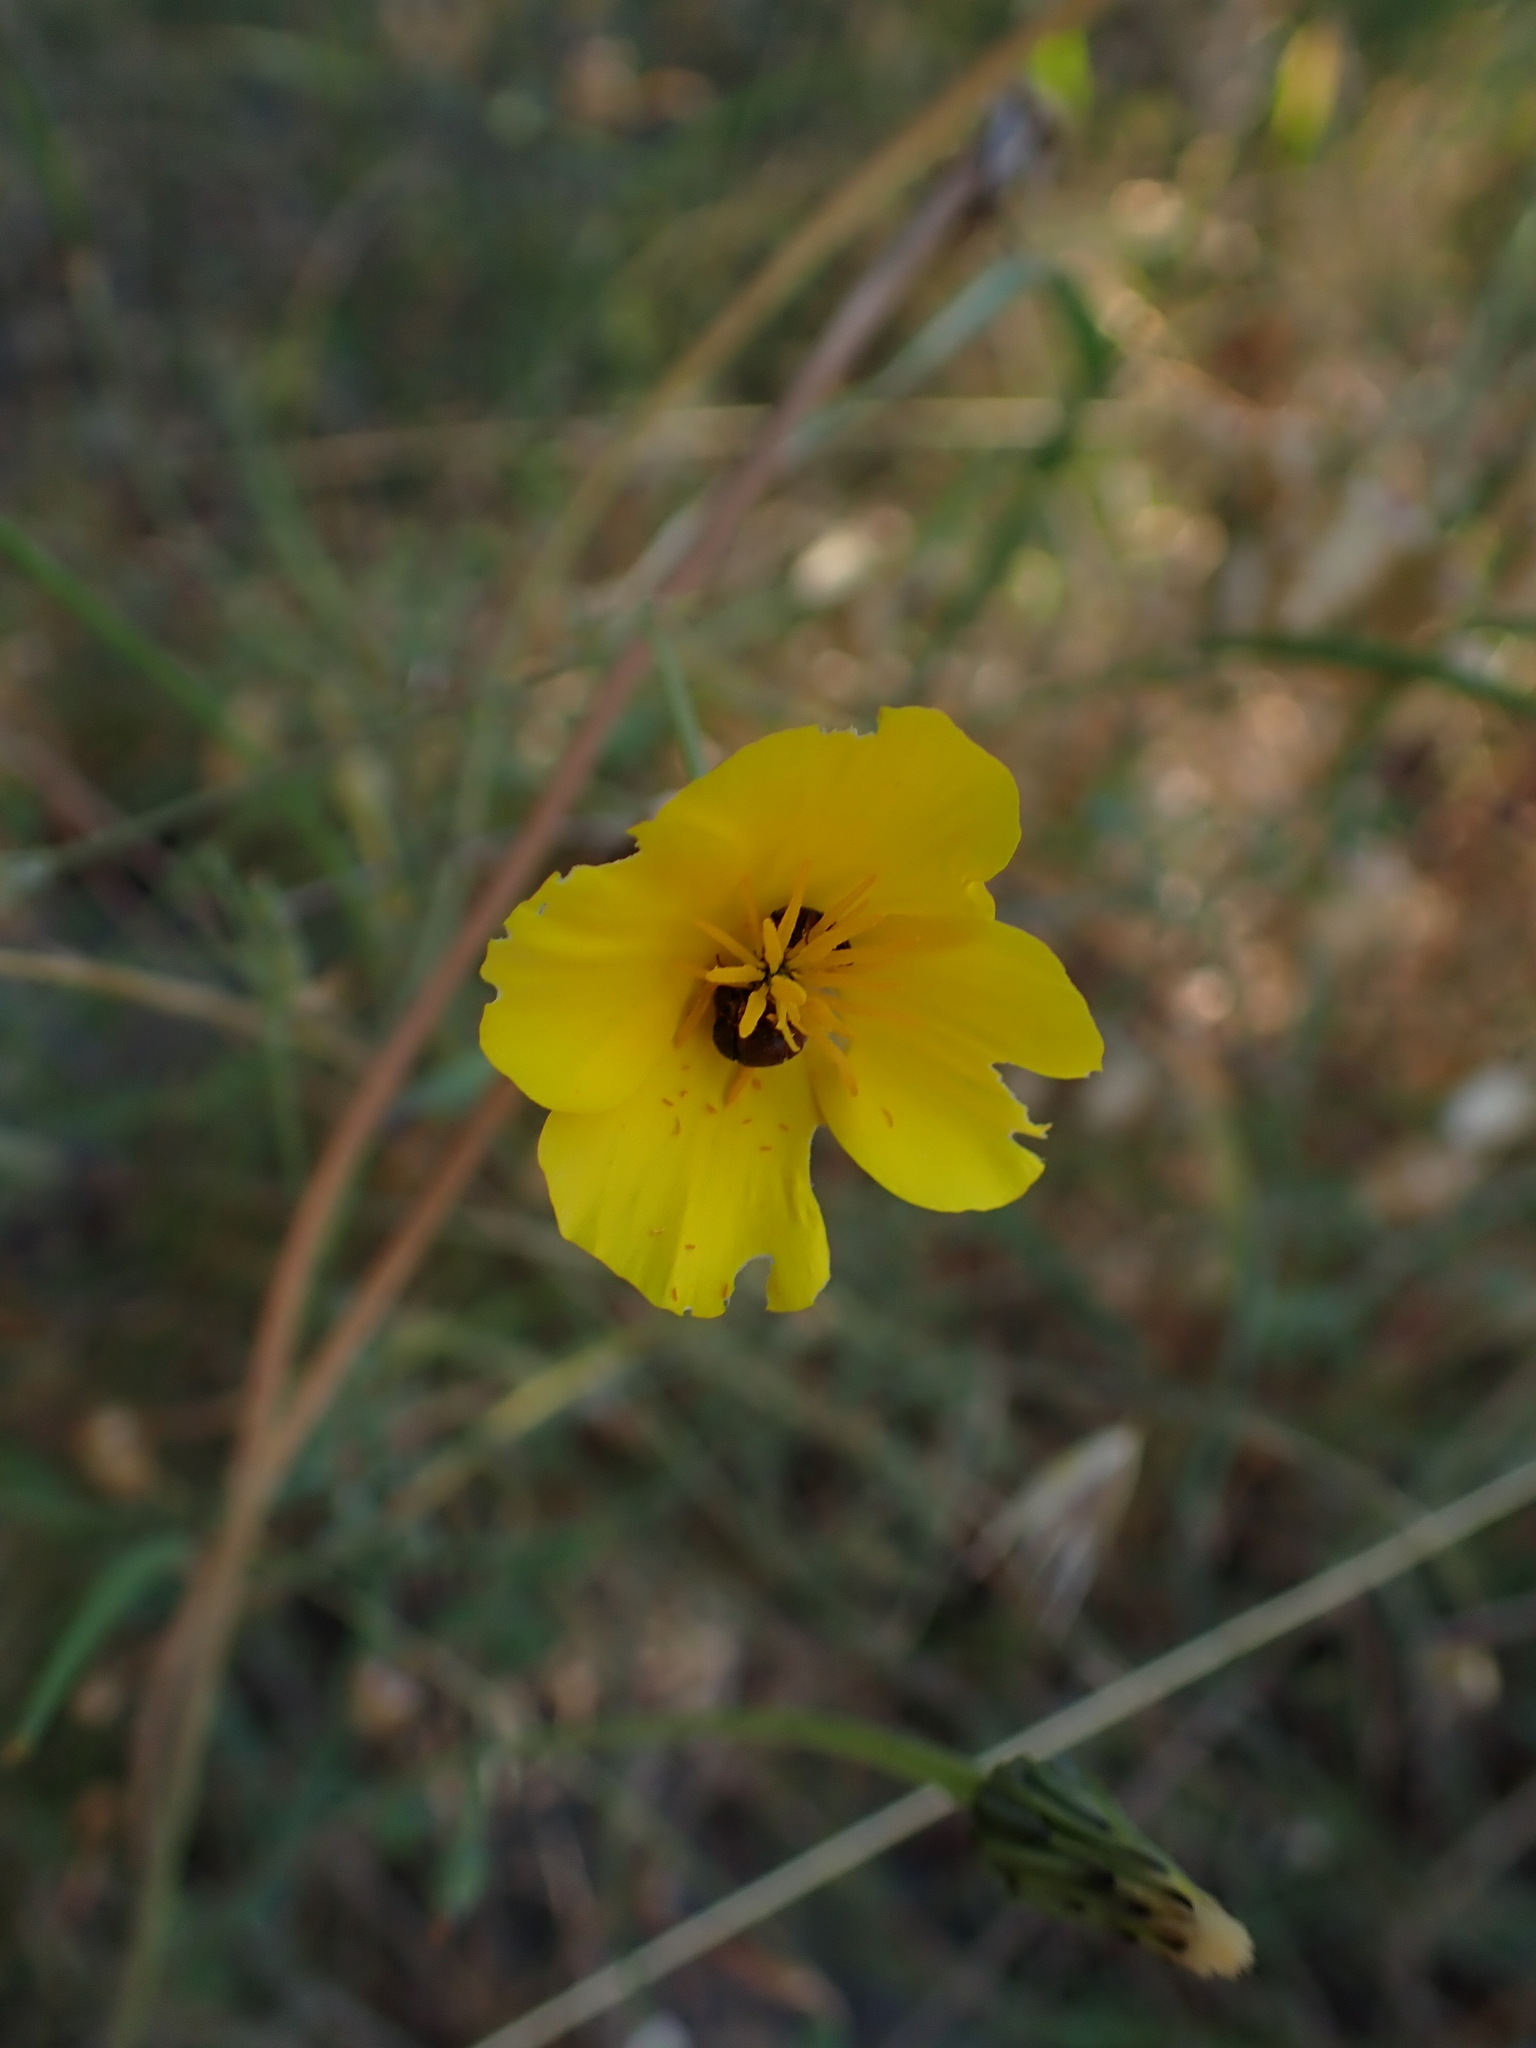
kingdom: Plantae
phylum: Tracheophyta
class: Magnoliopsida
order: Ranunculales
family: Papaveraceae
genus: Eschscholzia
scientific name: Eschscholzia californica
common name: California poppy
